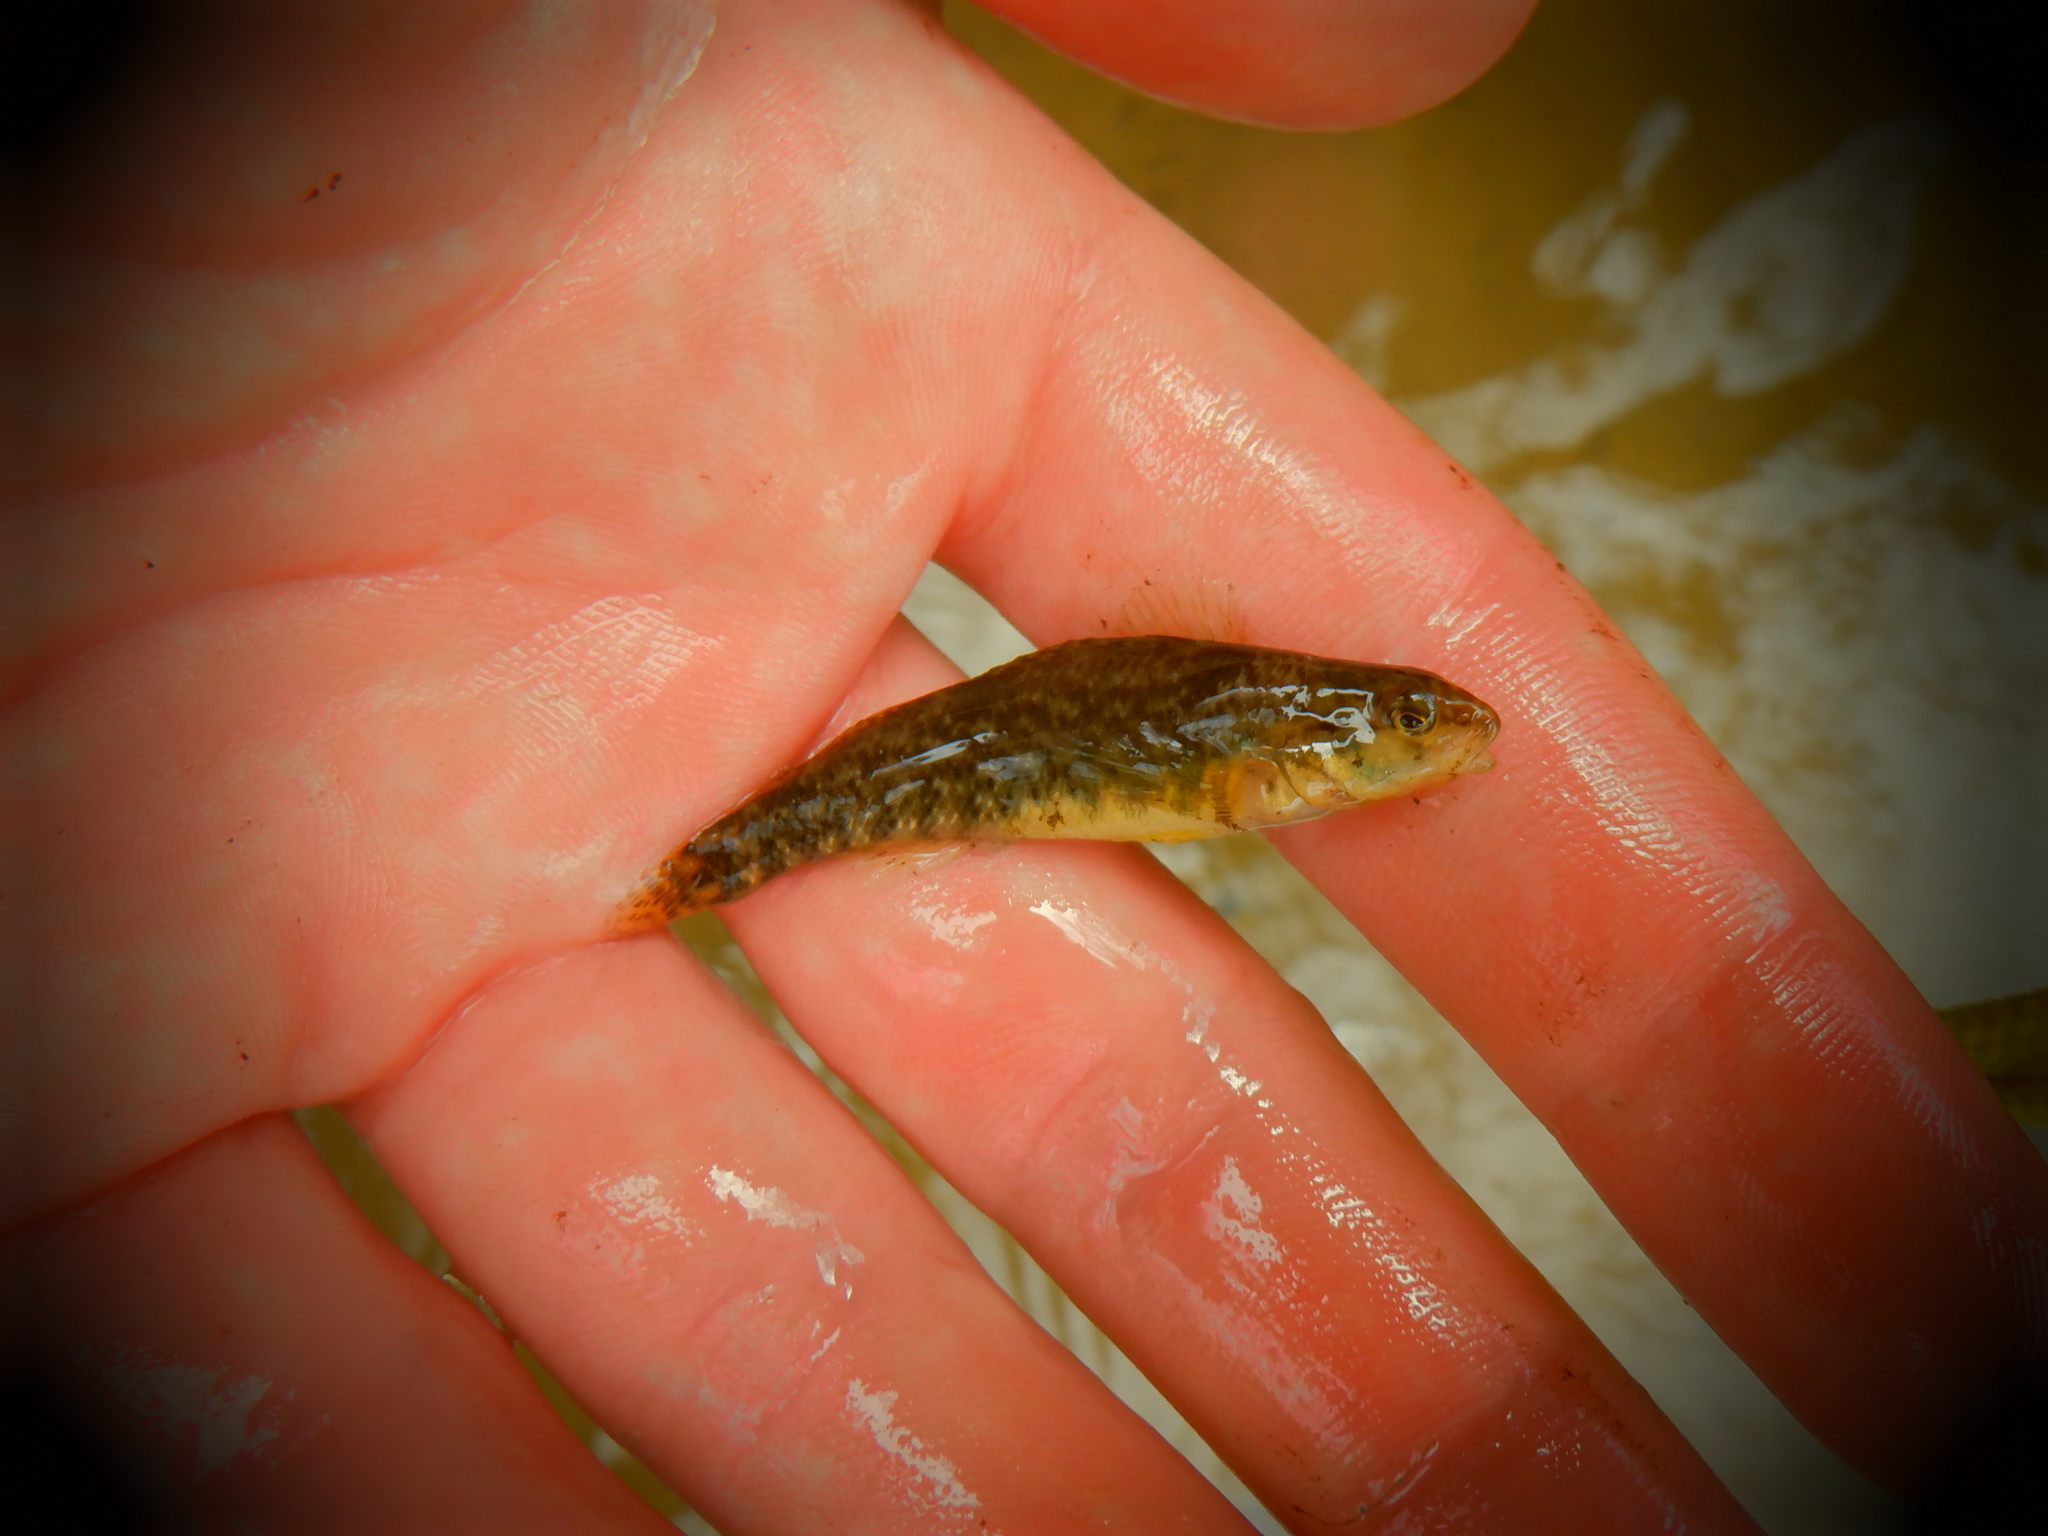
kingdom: Animalia
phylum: Chordata
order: Perciformes
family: Percidae
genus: Etheostoma
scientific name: Etheostoma caeruleum
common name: Rainbow darter
